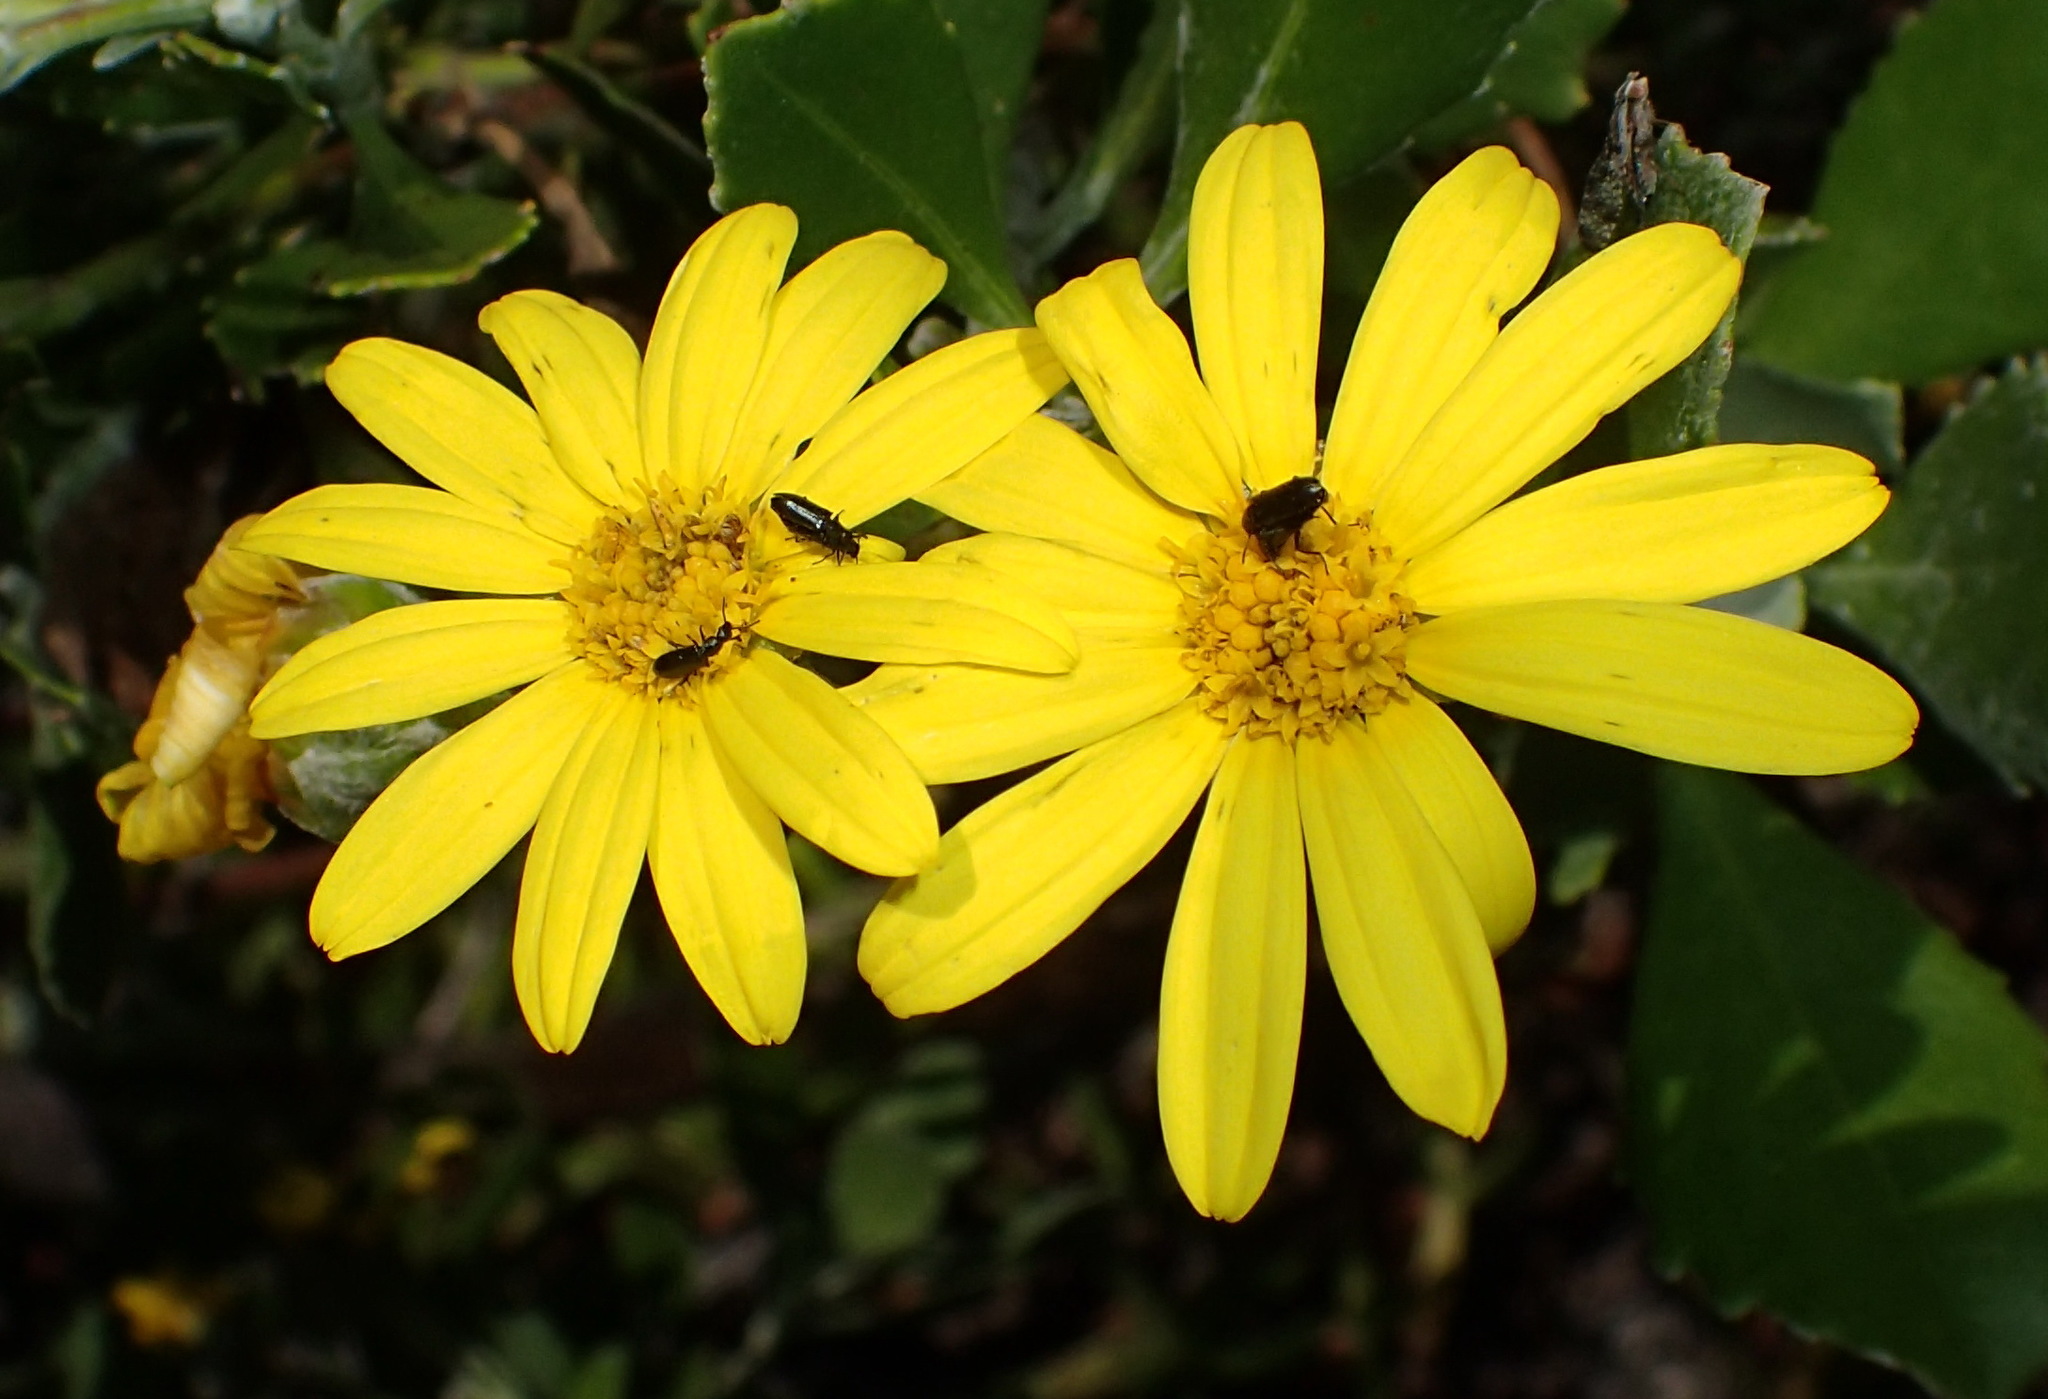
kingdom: Plantae
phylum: Tracheophyta
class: Magnoliopsida
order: Asterales
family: Asteraceae
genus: Osteospermum
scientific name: Osteospermum moniliferum
